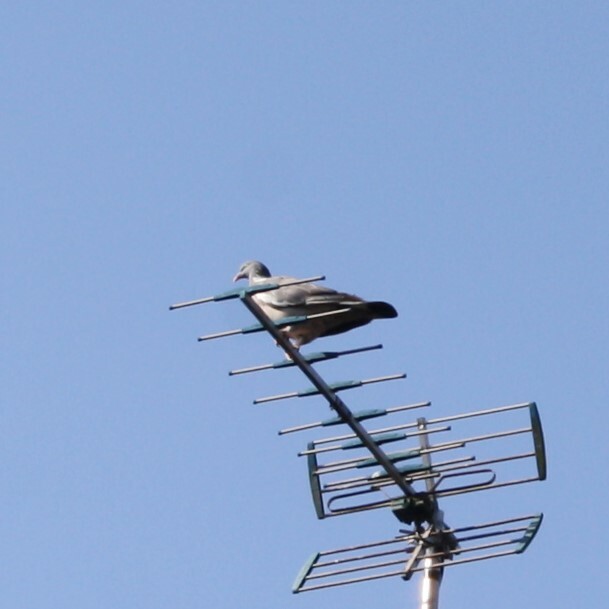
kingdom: Animalia
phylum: Chordata
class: Aves
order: Columbiformes
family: Columbidae
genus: Columba
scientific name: Columba palumbus
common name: Common wood pigeon
